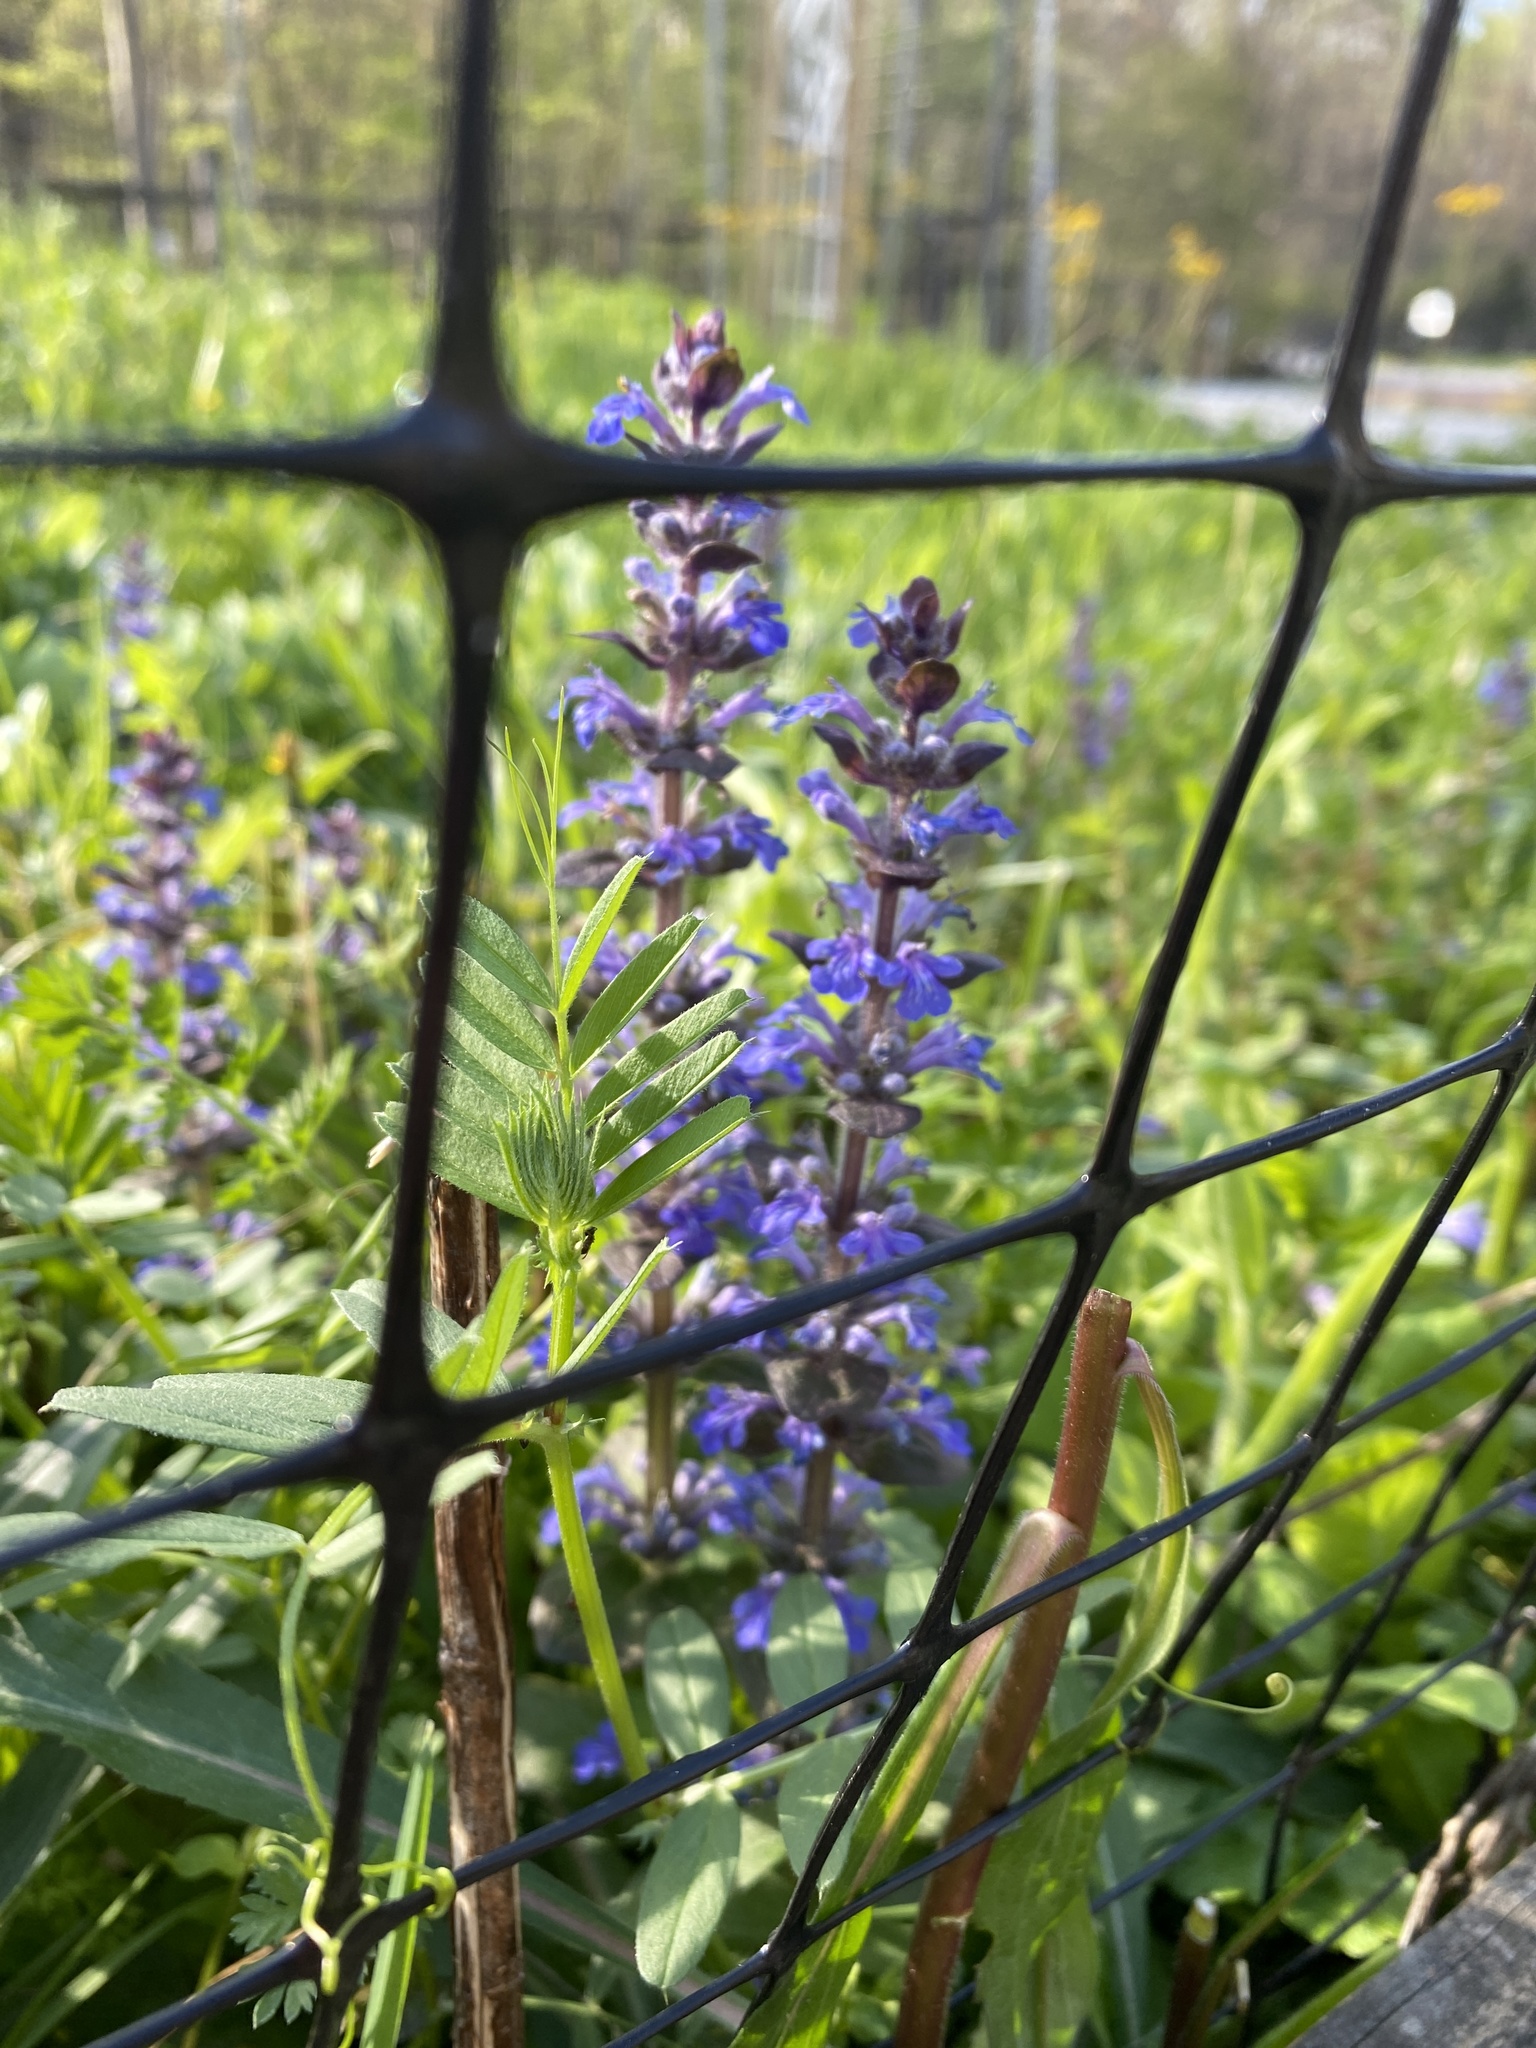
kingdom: Plantae
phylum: Tracheophyta
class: Magnoliopsida
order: Lamiales
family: Lamiaceae
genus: Ajuga
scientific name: Ajuga reptans
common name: Bugle
